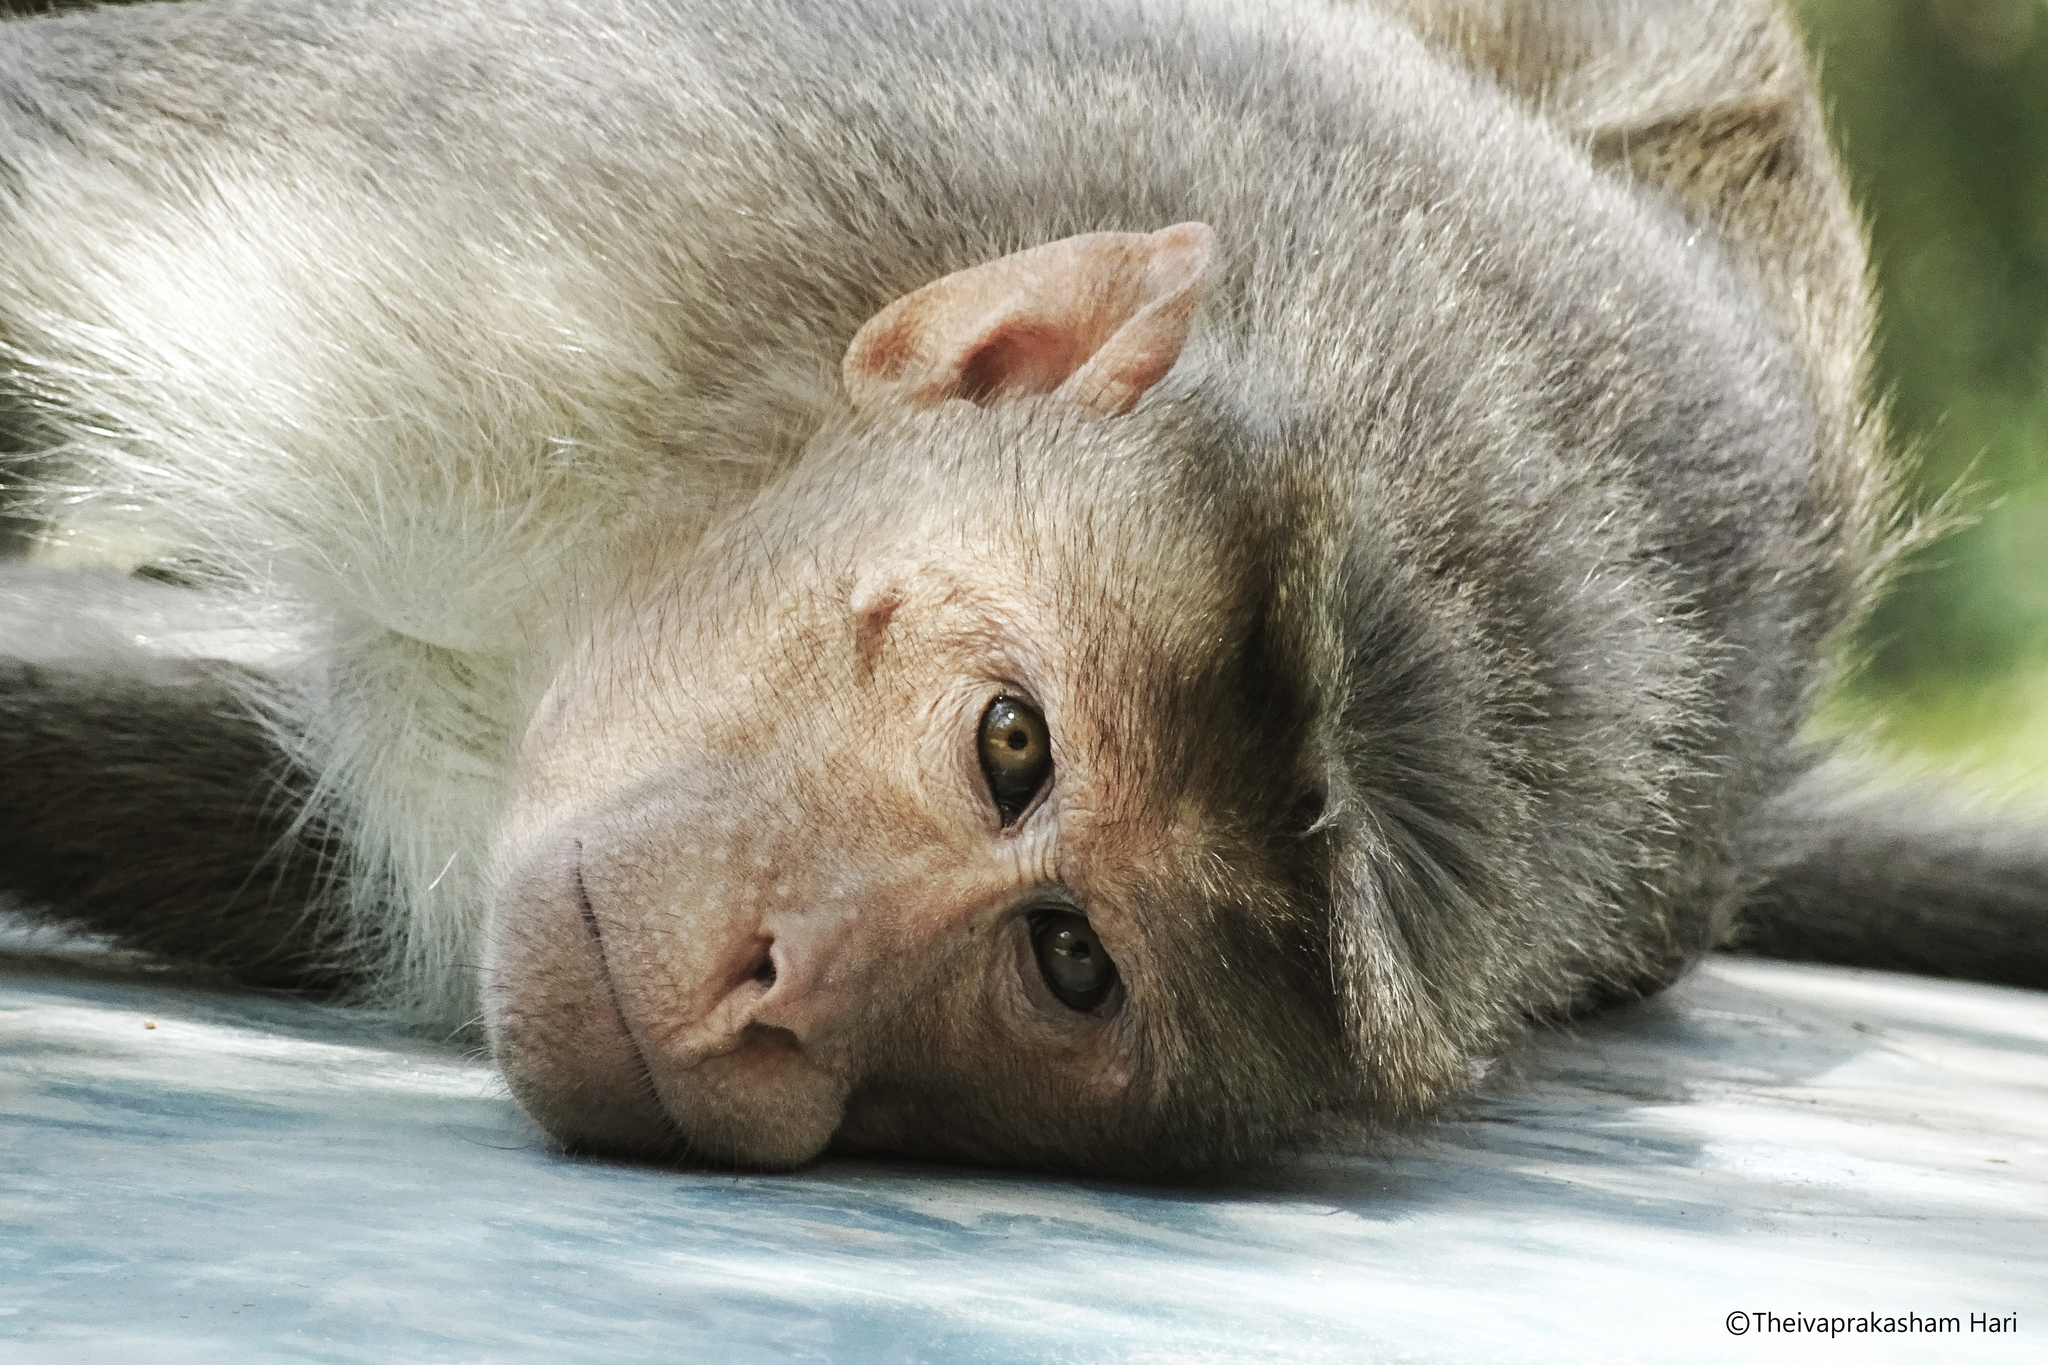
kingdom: Animalia
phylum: Chordata
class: Mammalia
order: Primates
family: Cercopithecidae
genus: Macaca
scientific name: Macaca radiata
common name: Bonnet macaque
